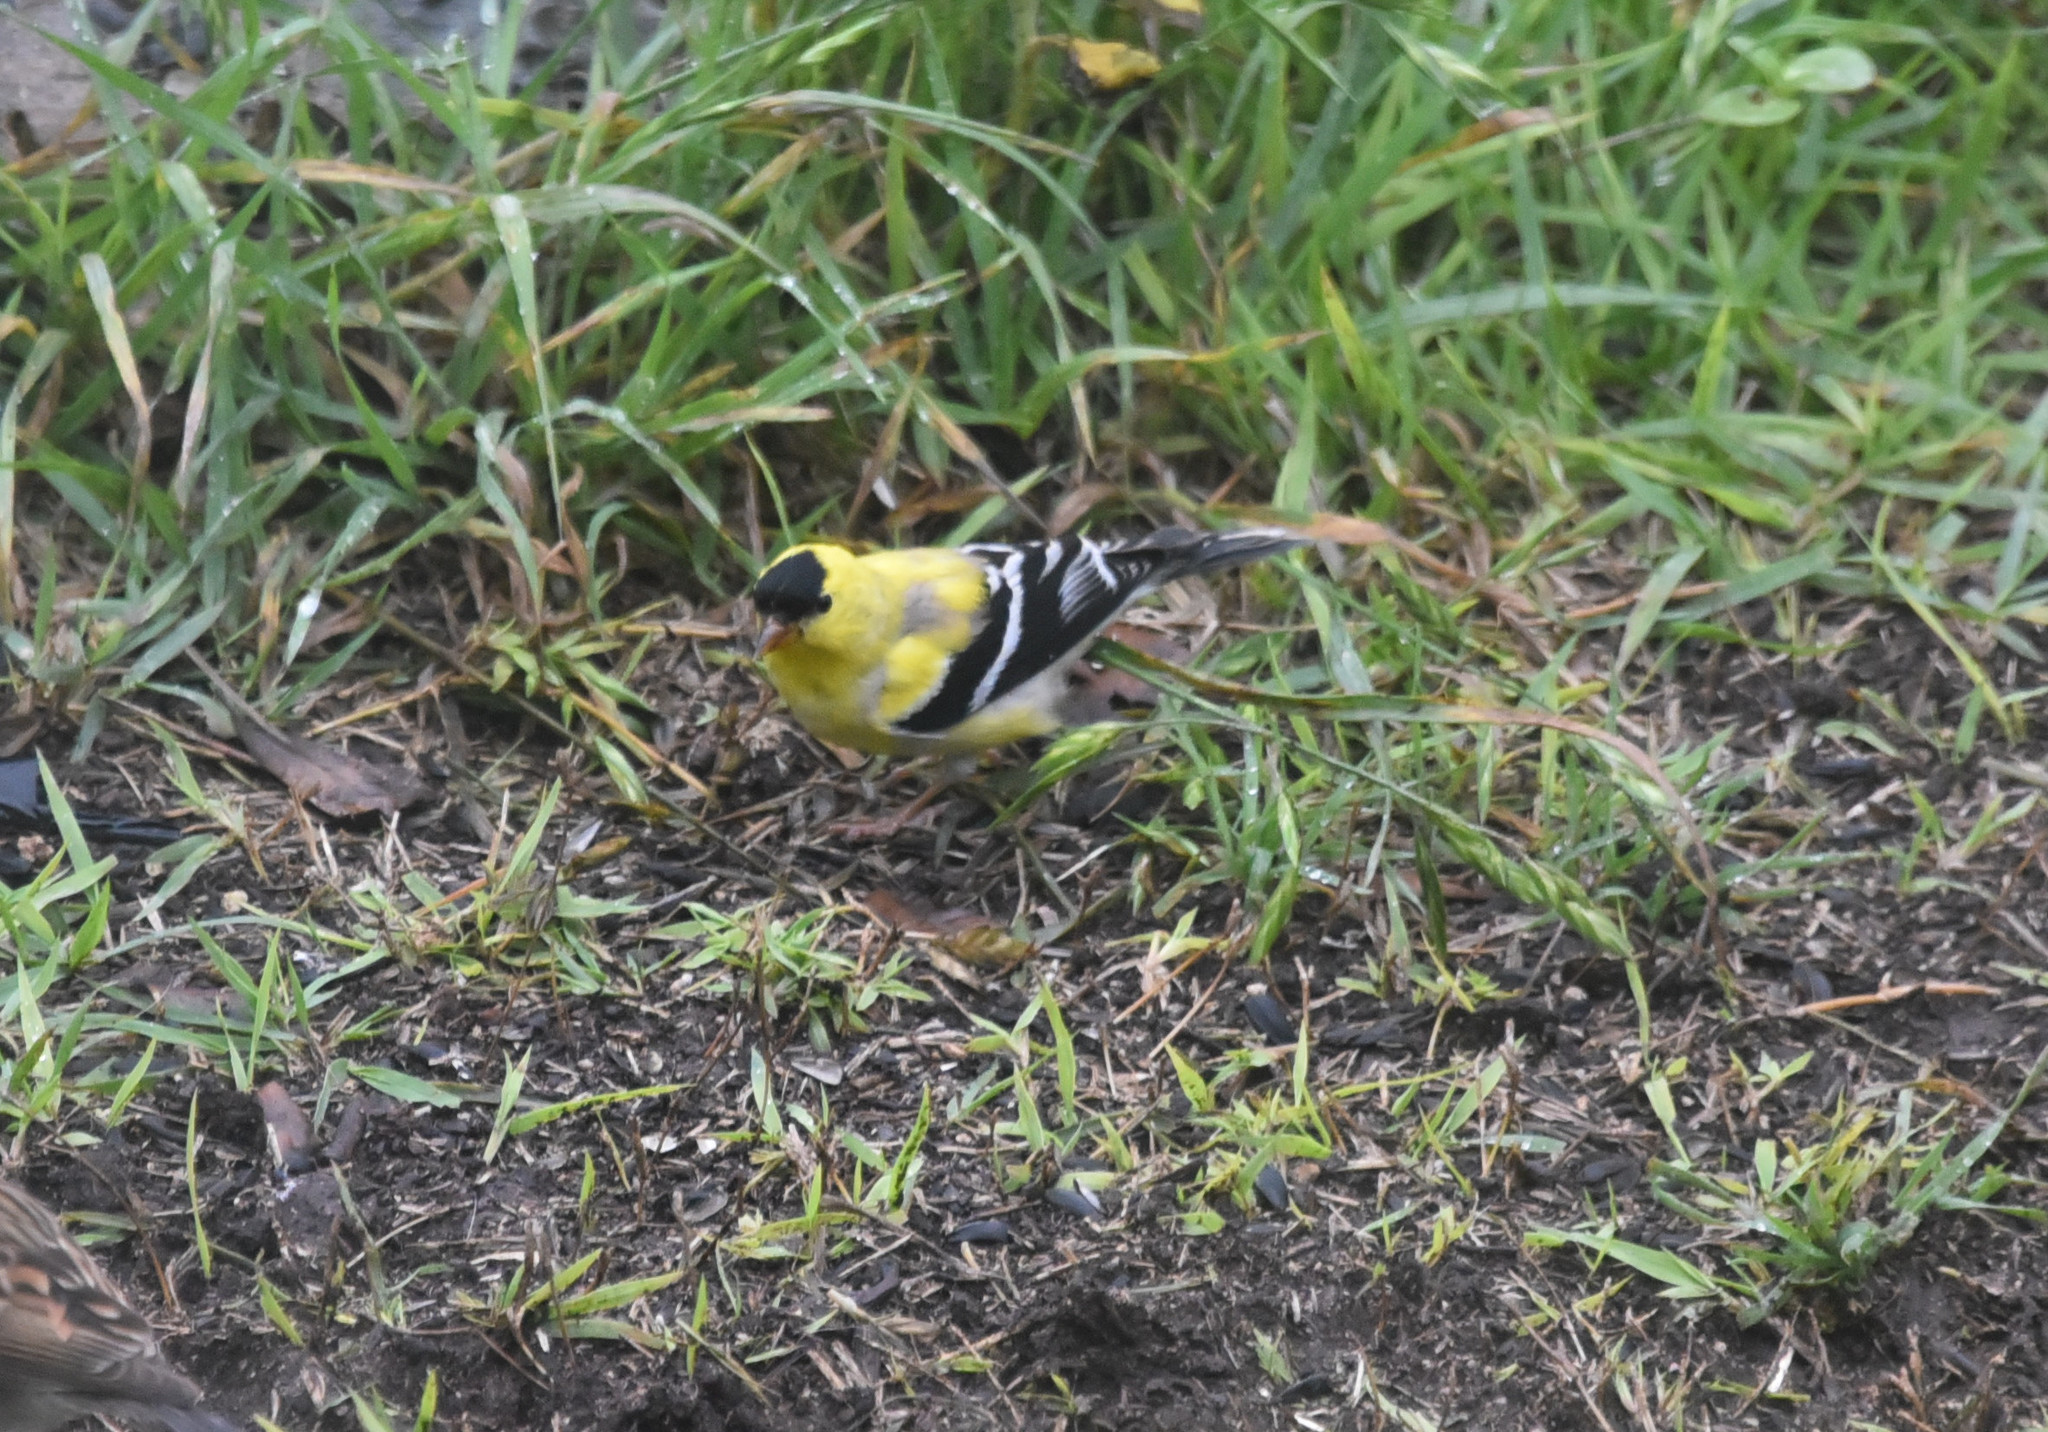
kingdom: Animalia
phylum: Chordata
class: Aves
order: Passeriformes
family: Fringillidae
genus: Spinus
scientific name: Spinus tristis
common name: American goldfinch
